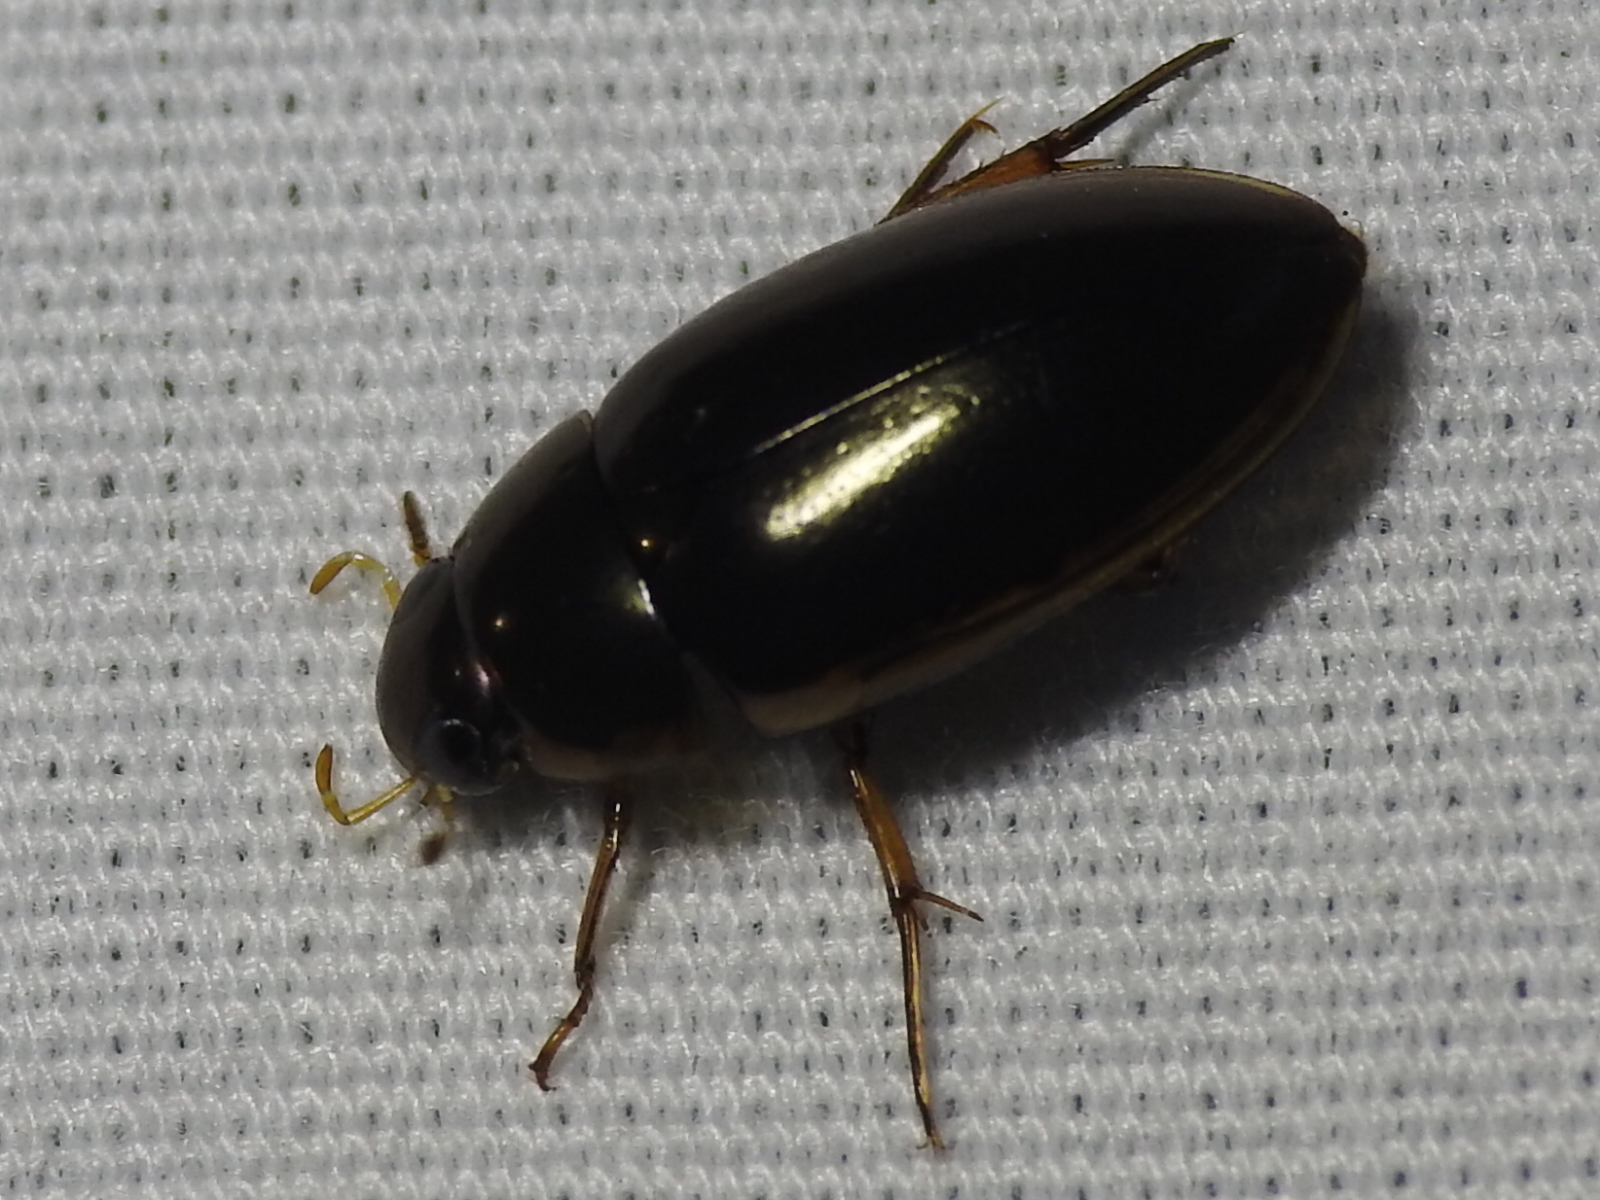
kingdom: Animalia
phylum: Arthropoda
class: Insecta
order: Coleoptera
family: Hydrophilidae
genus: Tropisternus
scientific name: Tropisternus lateralis
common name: Lateral-banded water scavenger beetle
